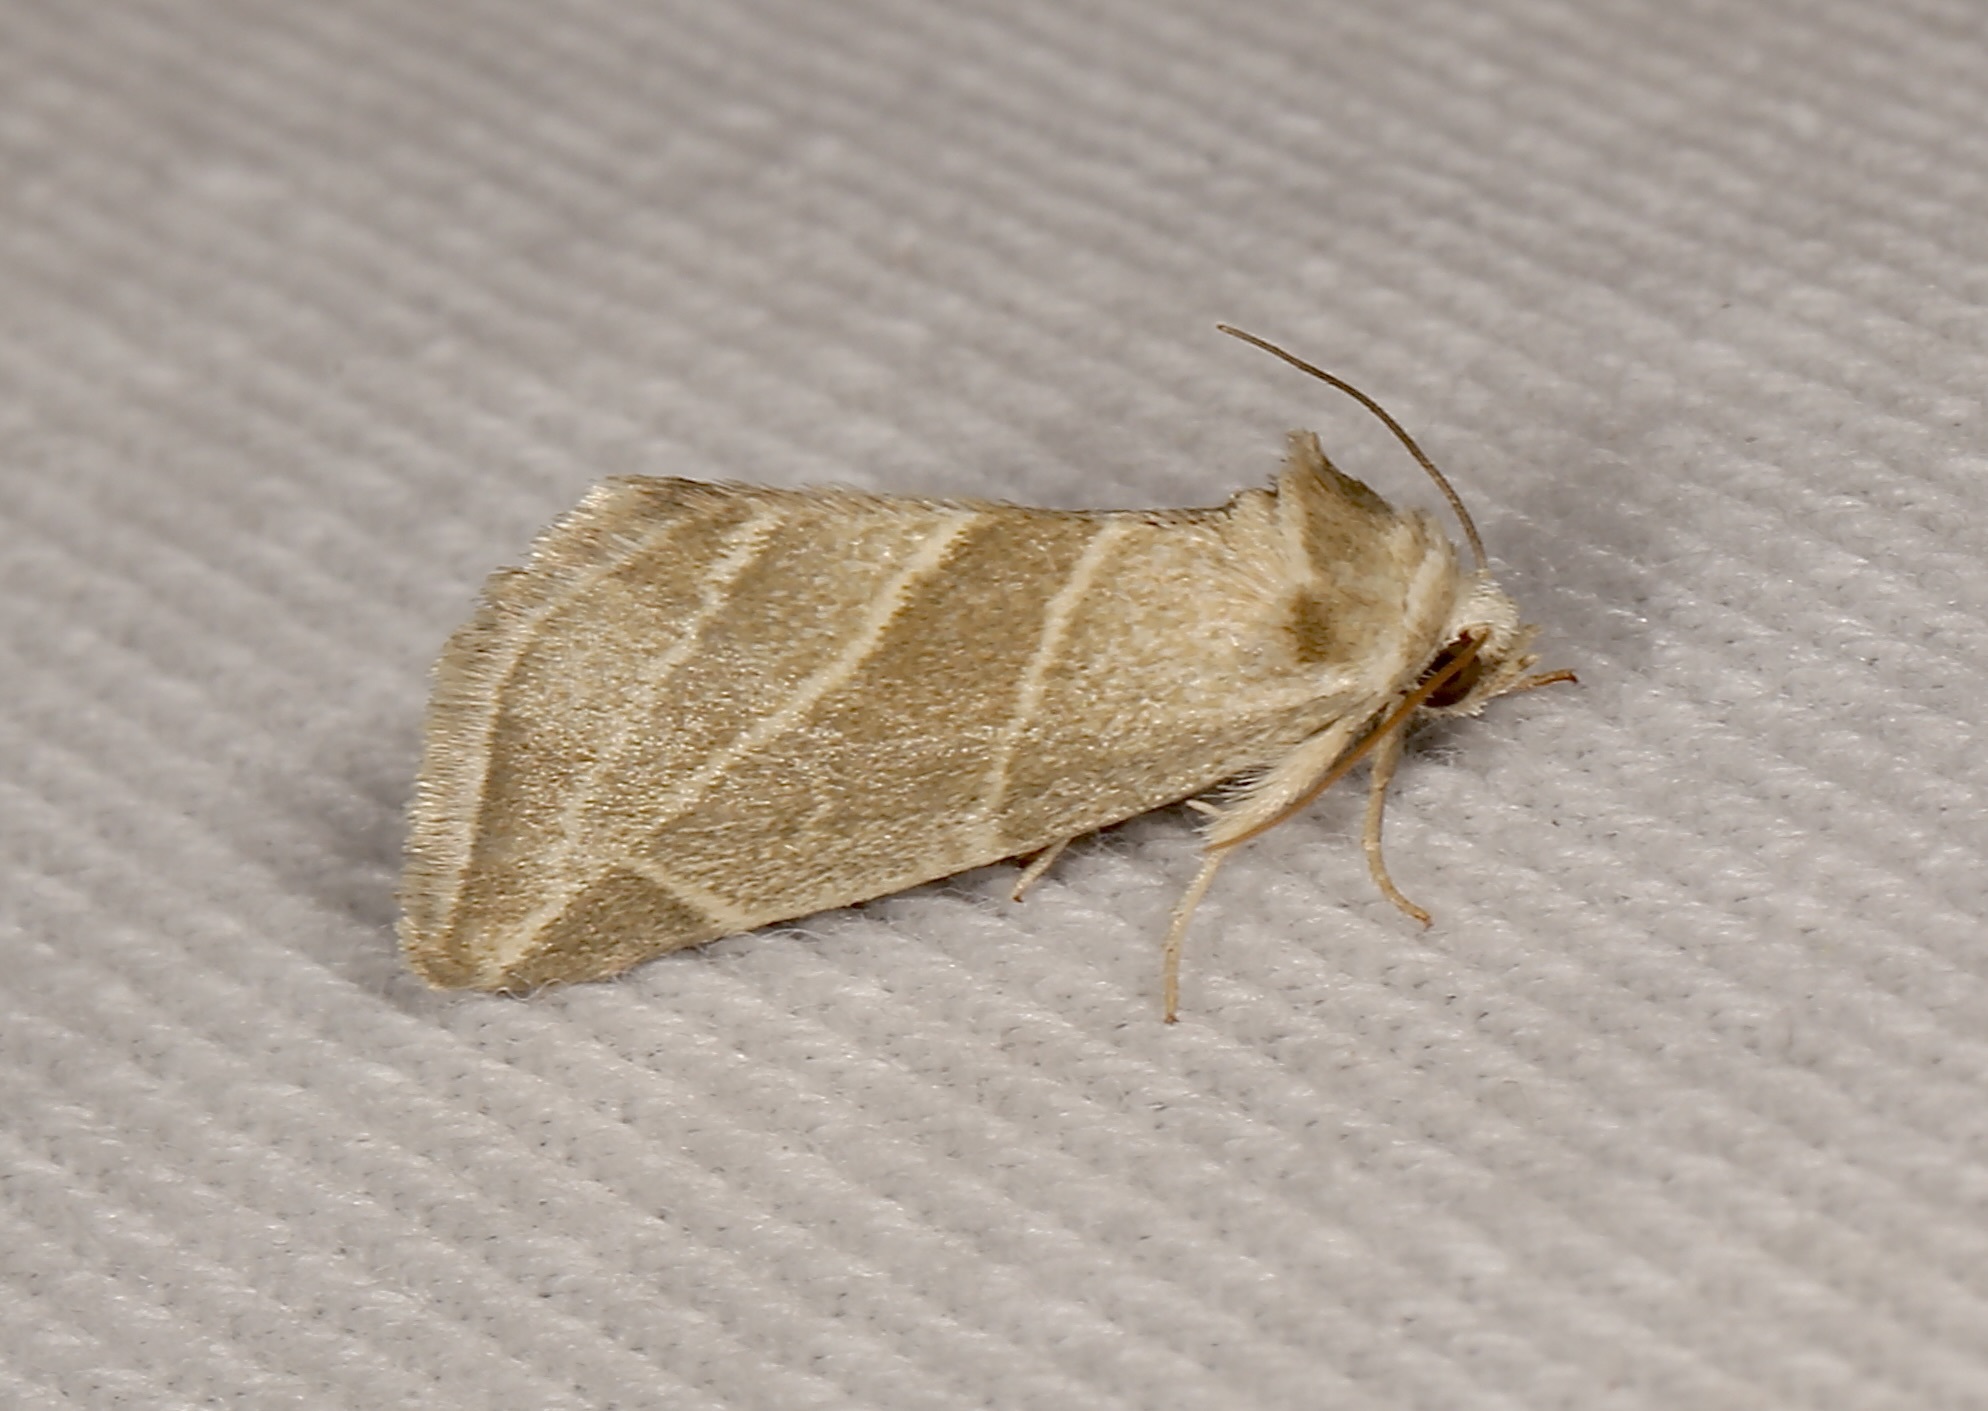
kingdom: Animalia
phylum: Arthropoda
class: Insecta
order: Lepidoptera
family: Noctuidae
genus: Plagiomimicus
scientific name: Plagiomimicus tepperi
